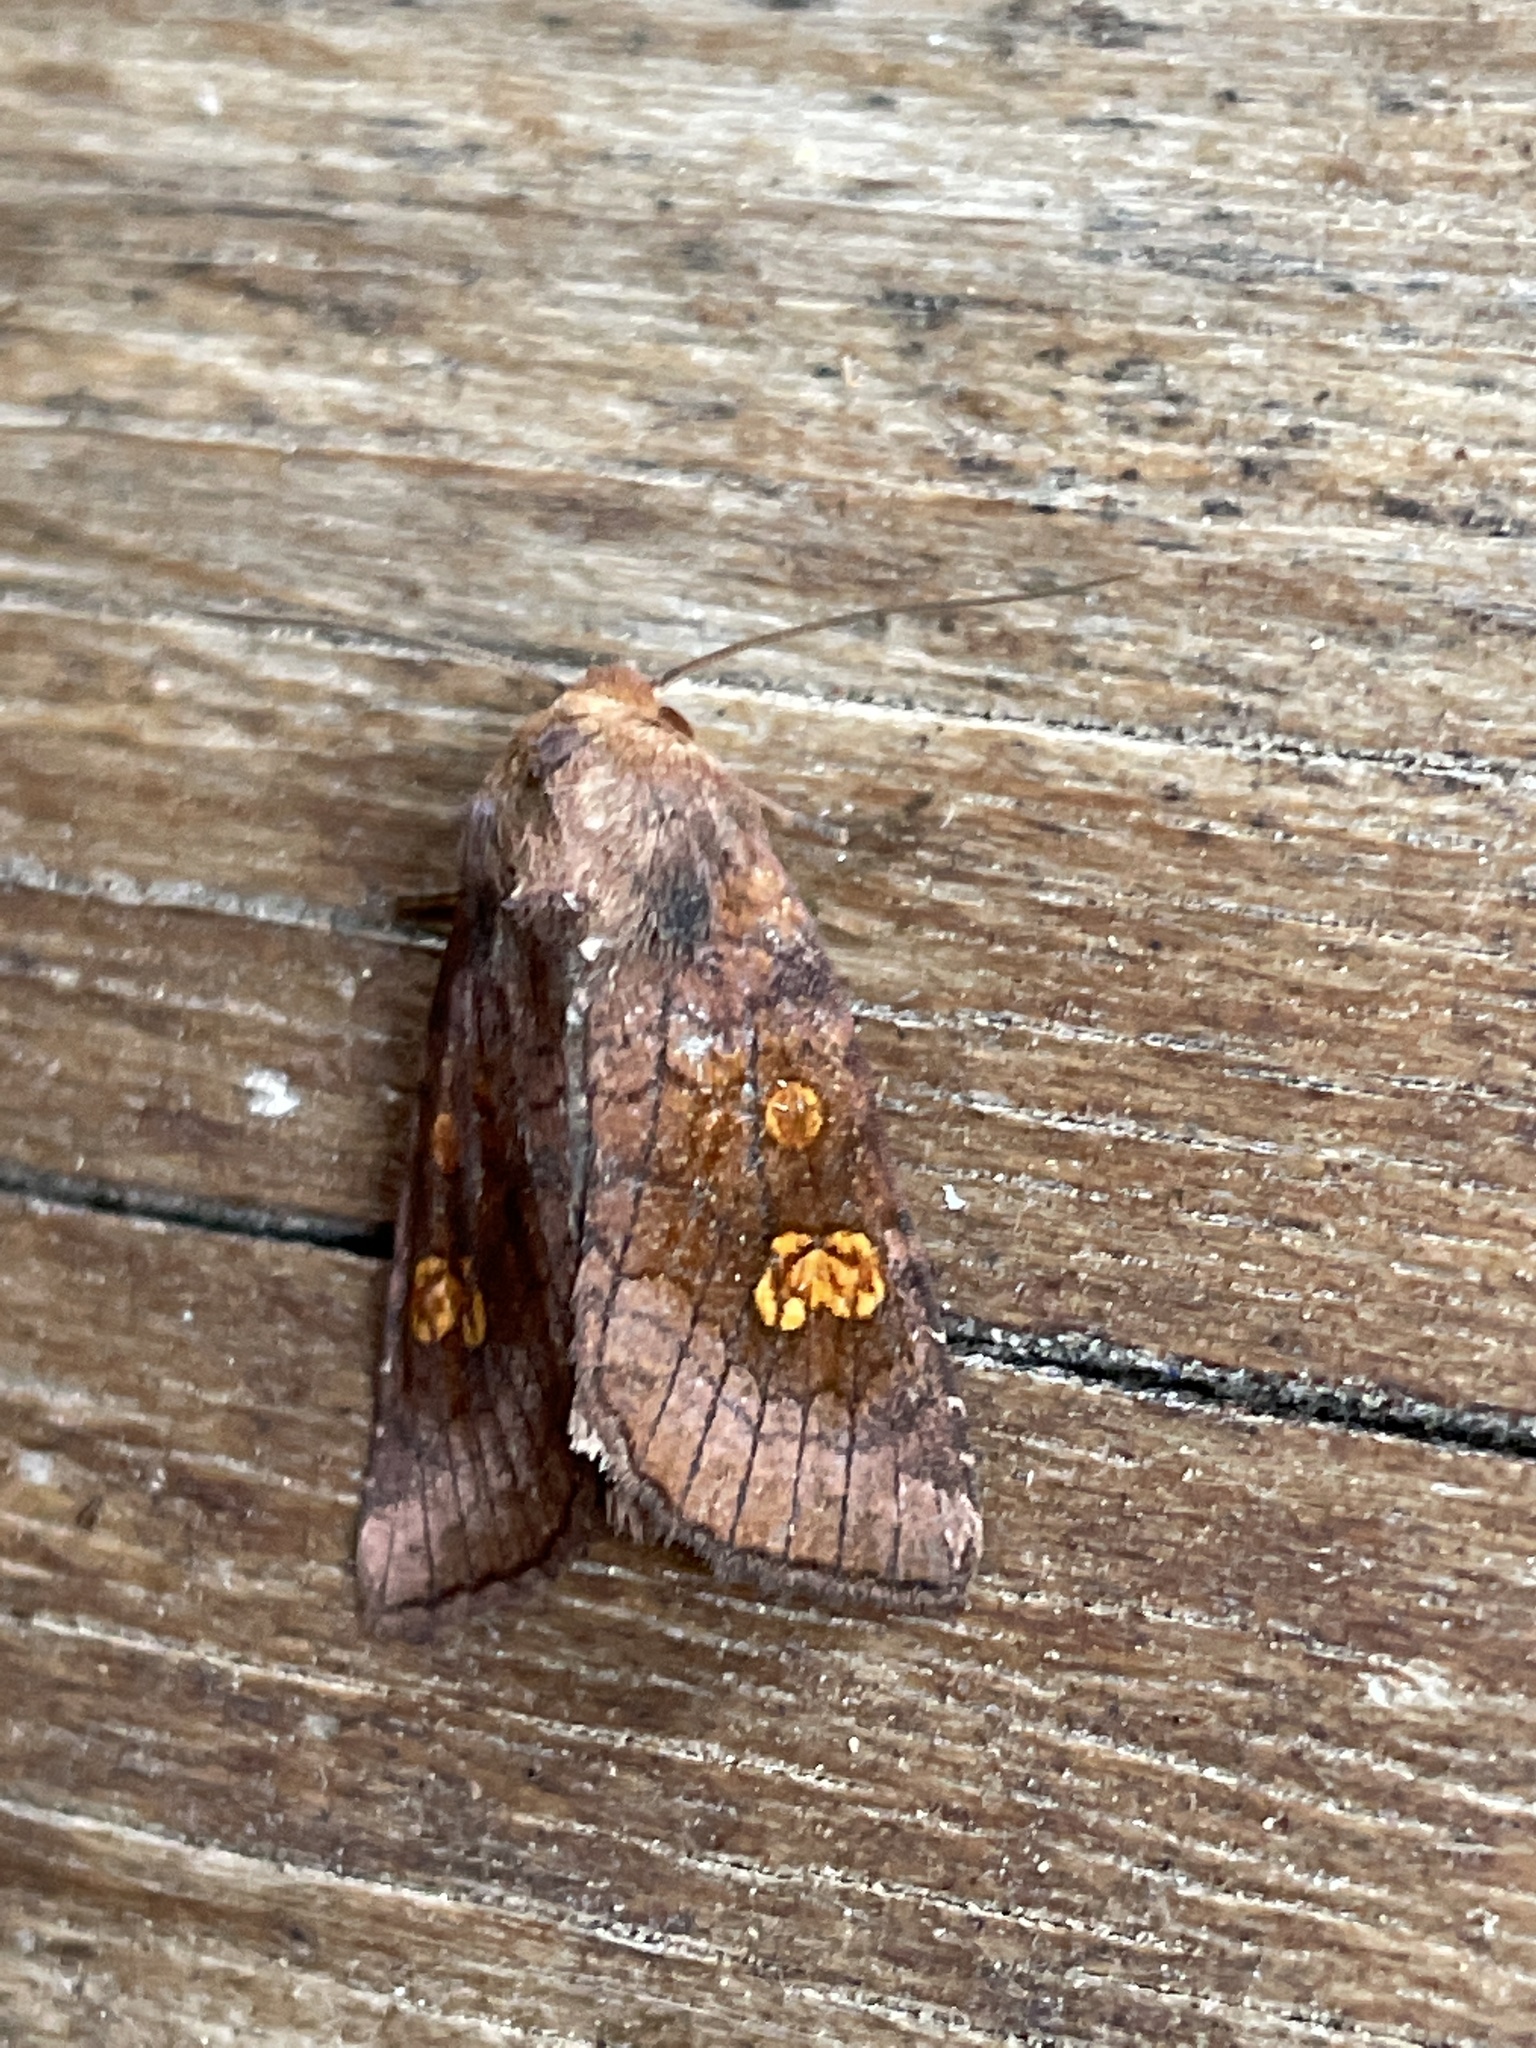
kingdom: Animalia
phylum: Arthropoda
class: Insecta
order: Lepidoptera
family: Noctuidae
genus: Amphipoea
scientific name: Amphipoea oculea
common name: Ear moth
